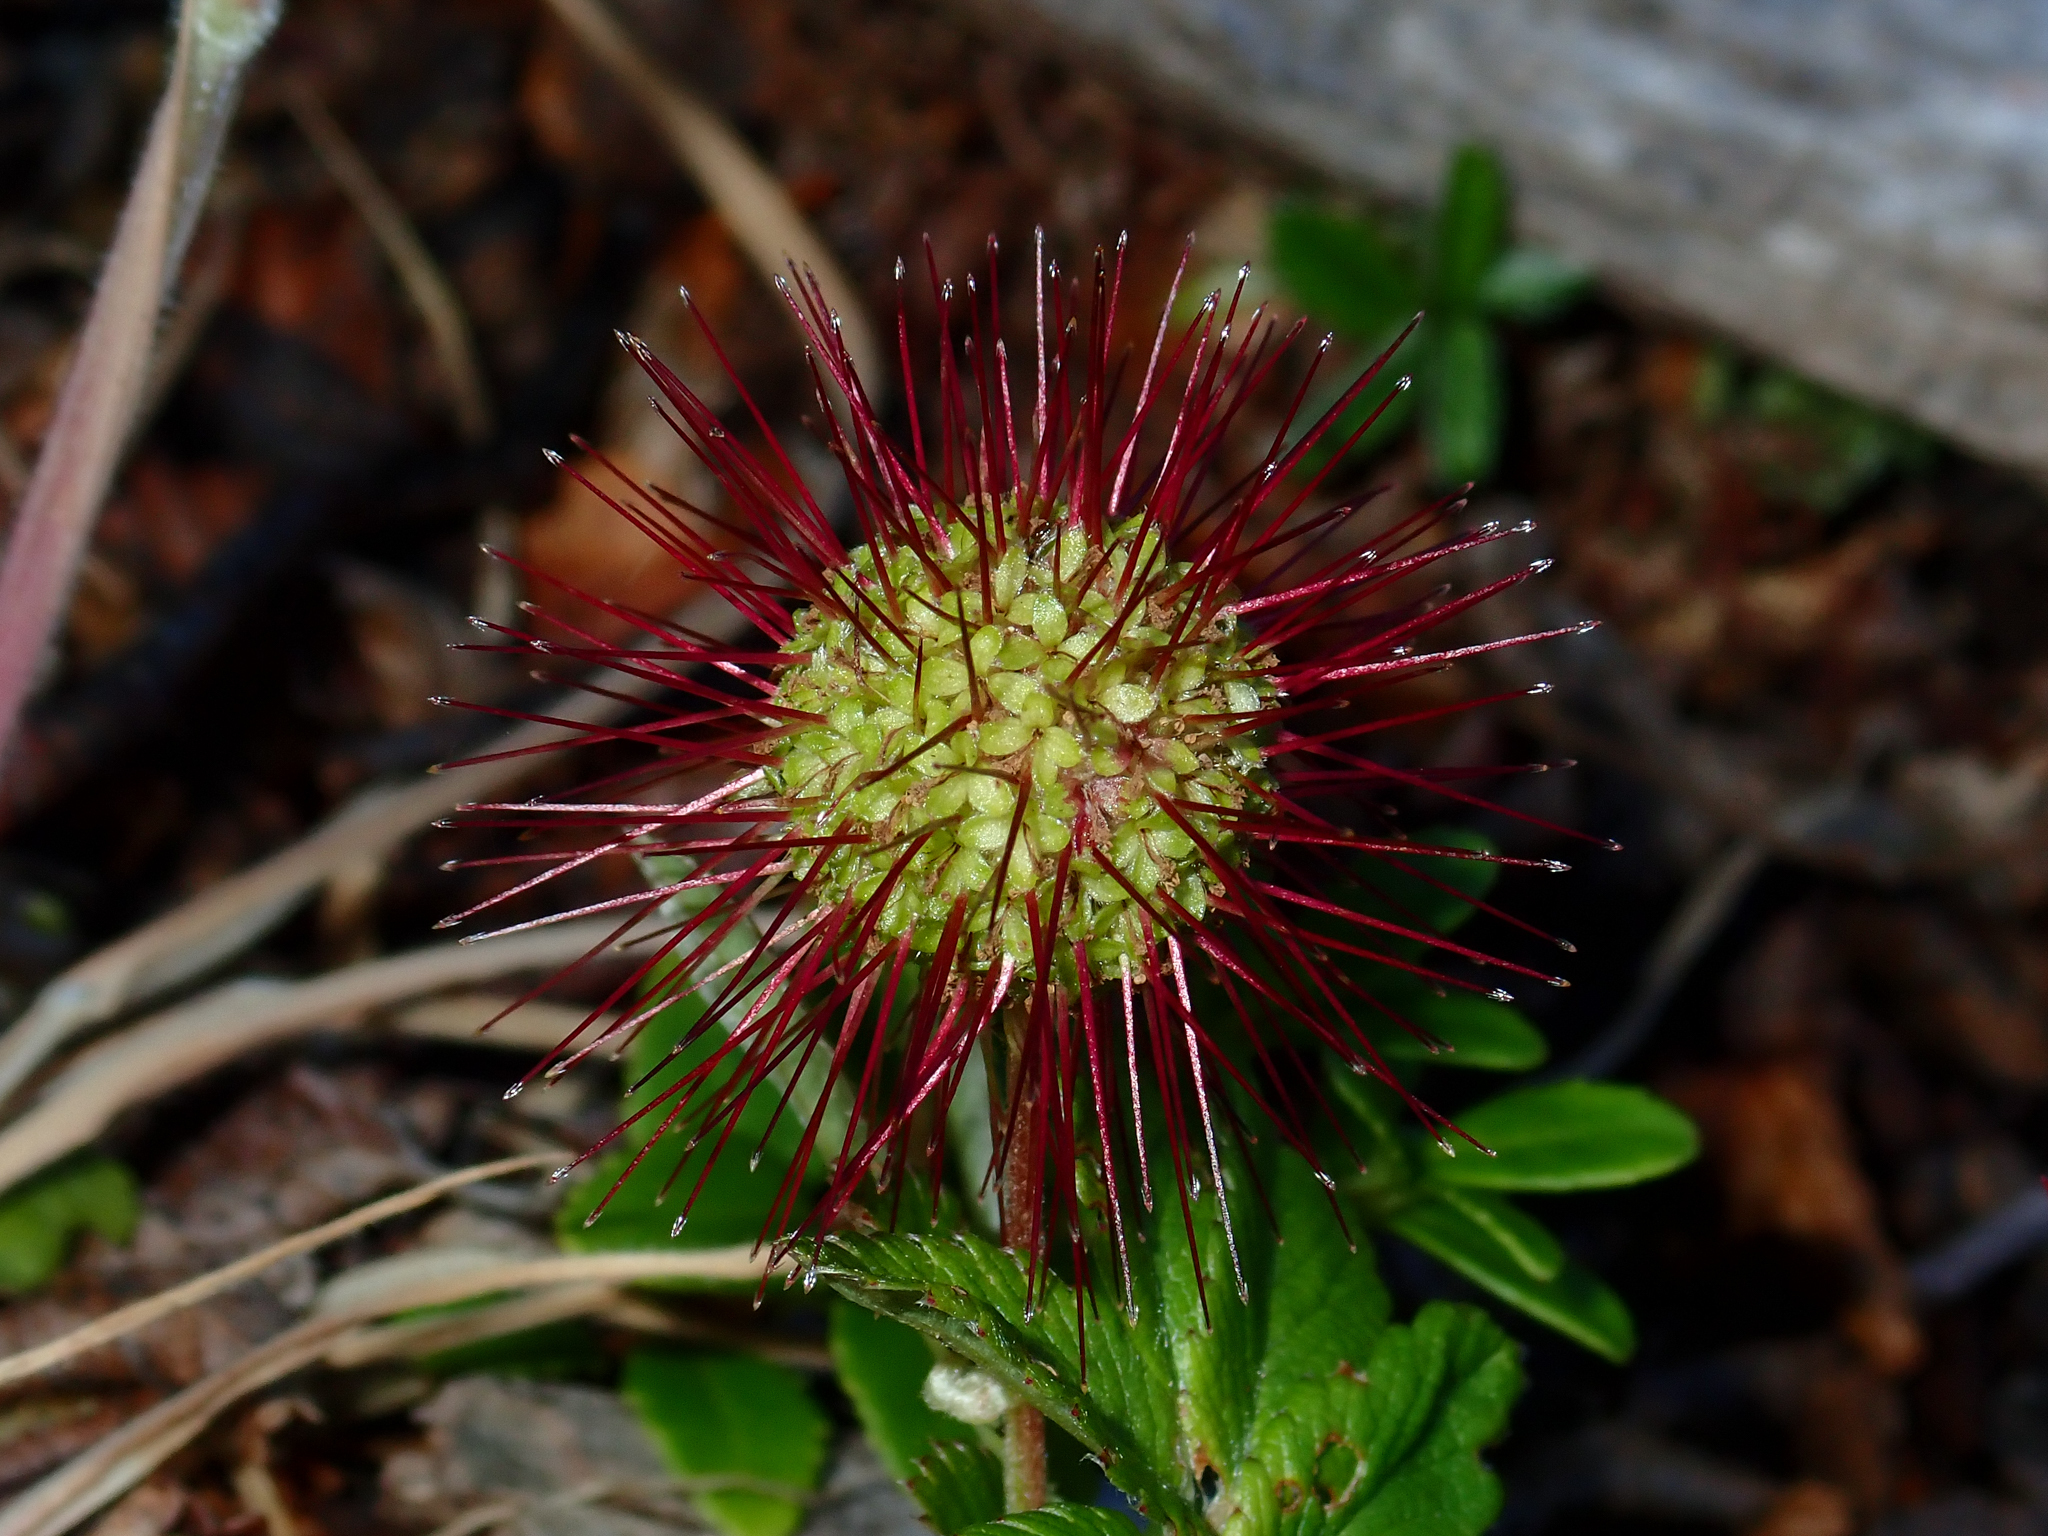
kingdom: Plantae
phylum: Tracheophyta
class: Magnoliopsida
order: Rosales
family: Rosaceae
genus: Acaena
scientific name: Acaena ovalifolia
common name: Two-spined acaena
